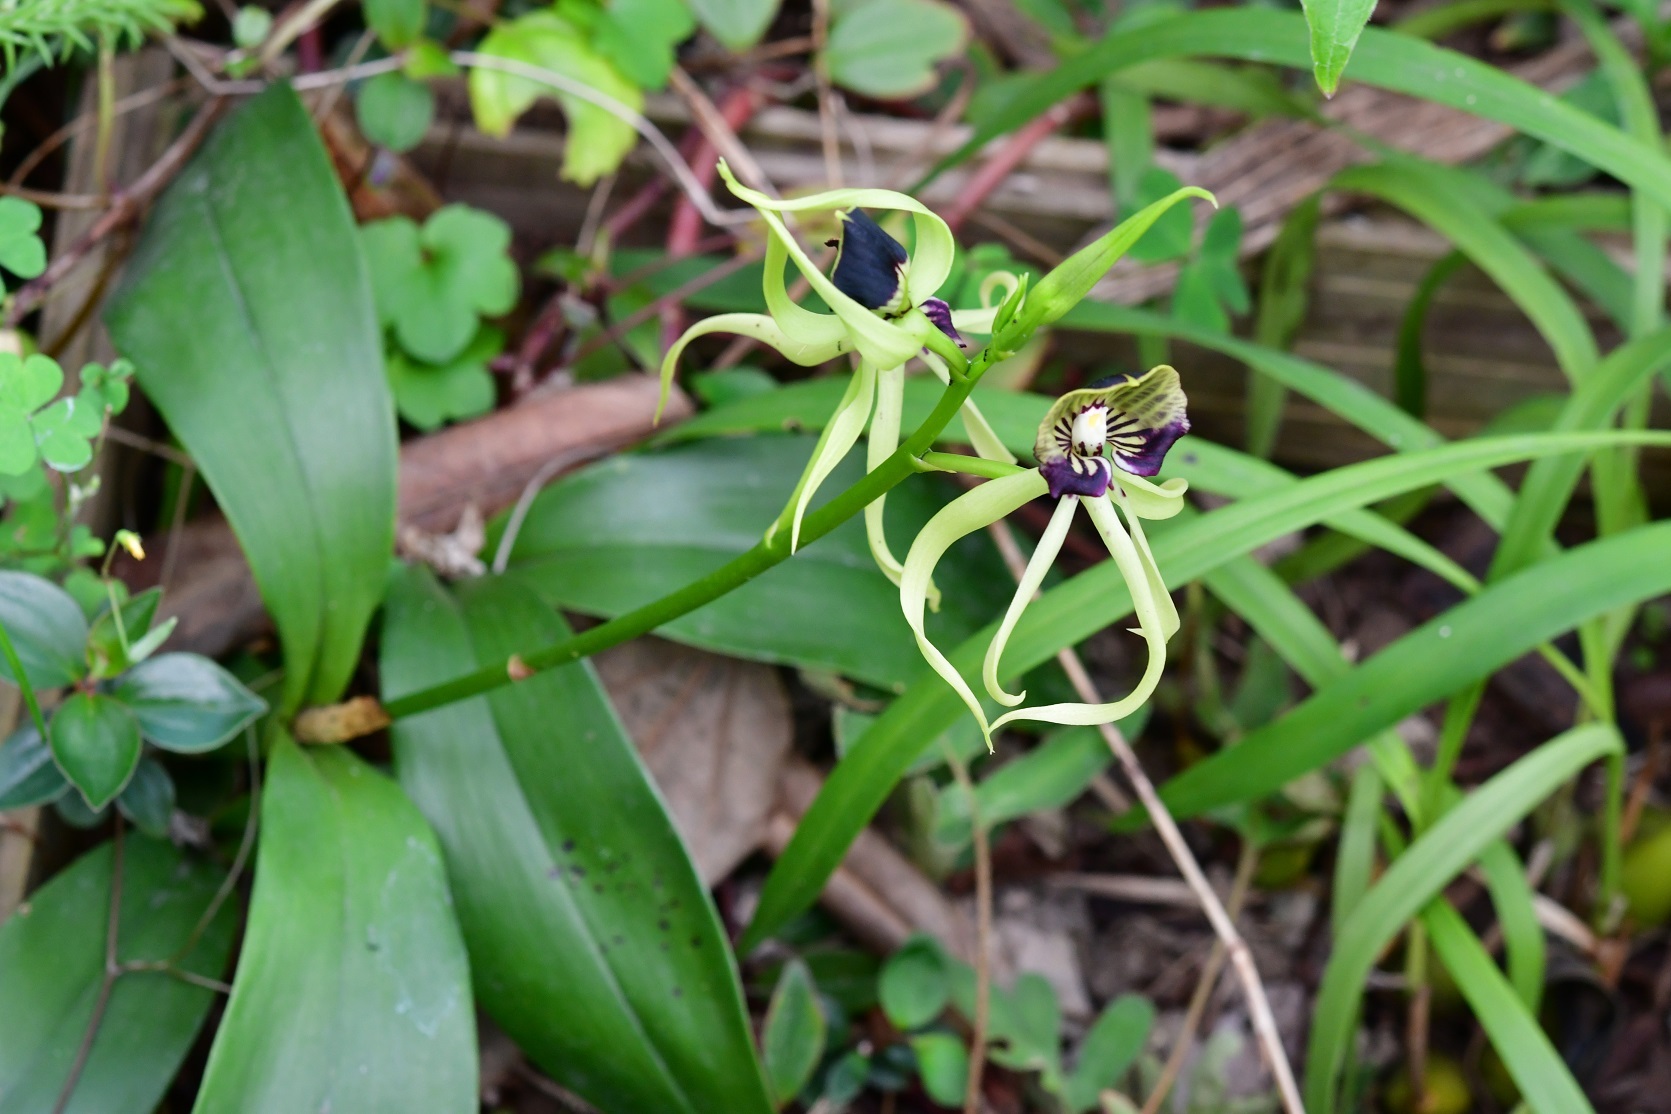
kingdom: Plantae
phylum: Tracheophyta
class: Liliopsida
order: Asparagales
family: Orchidaceae
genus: Prosthechea
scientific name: Prosthechea cochleata
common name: Clamshell orchid
